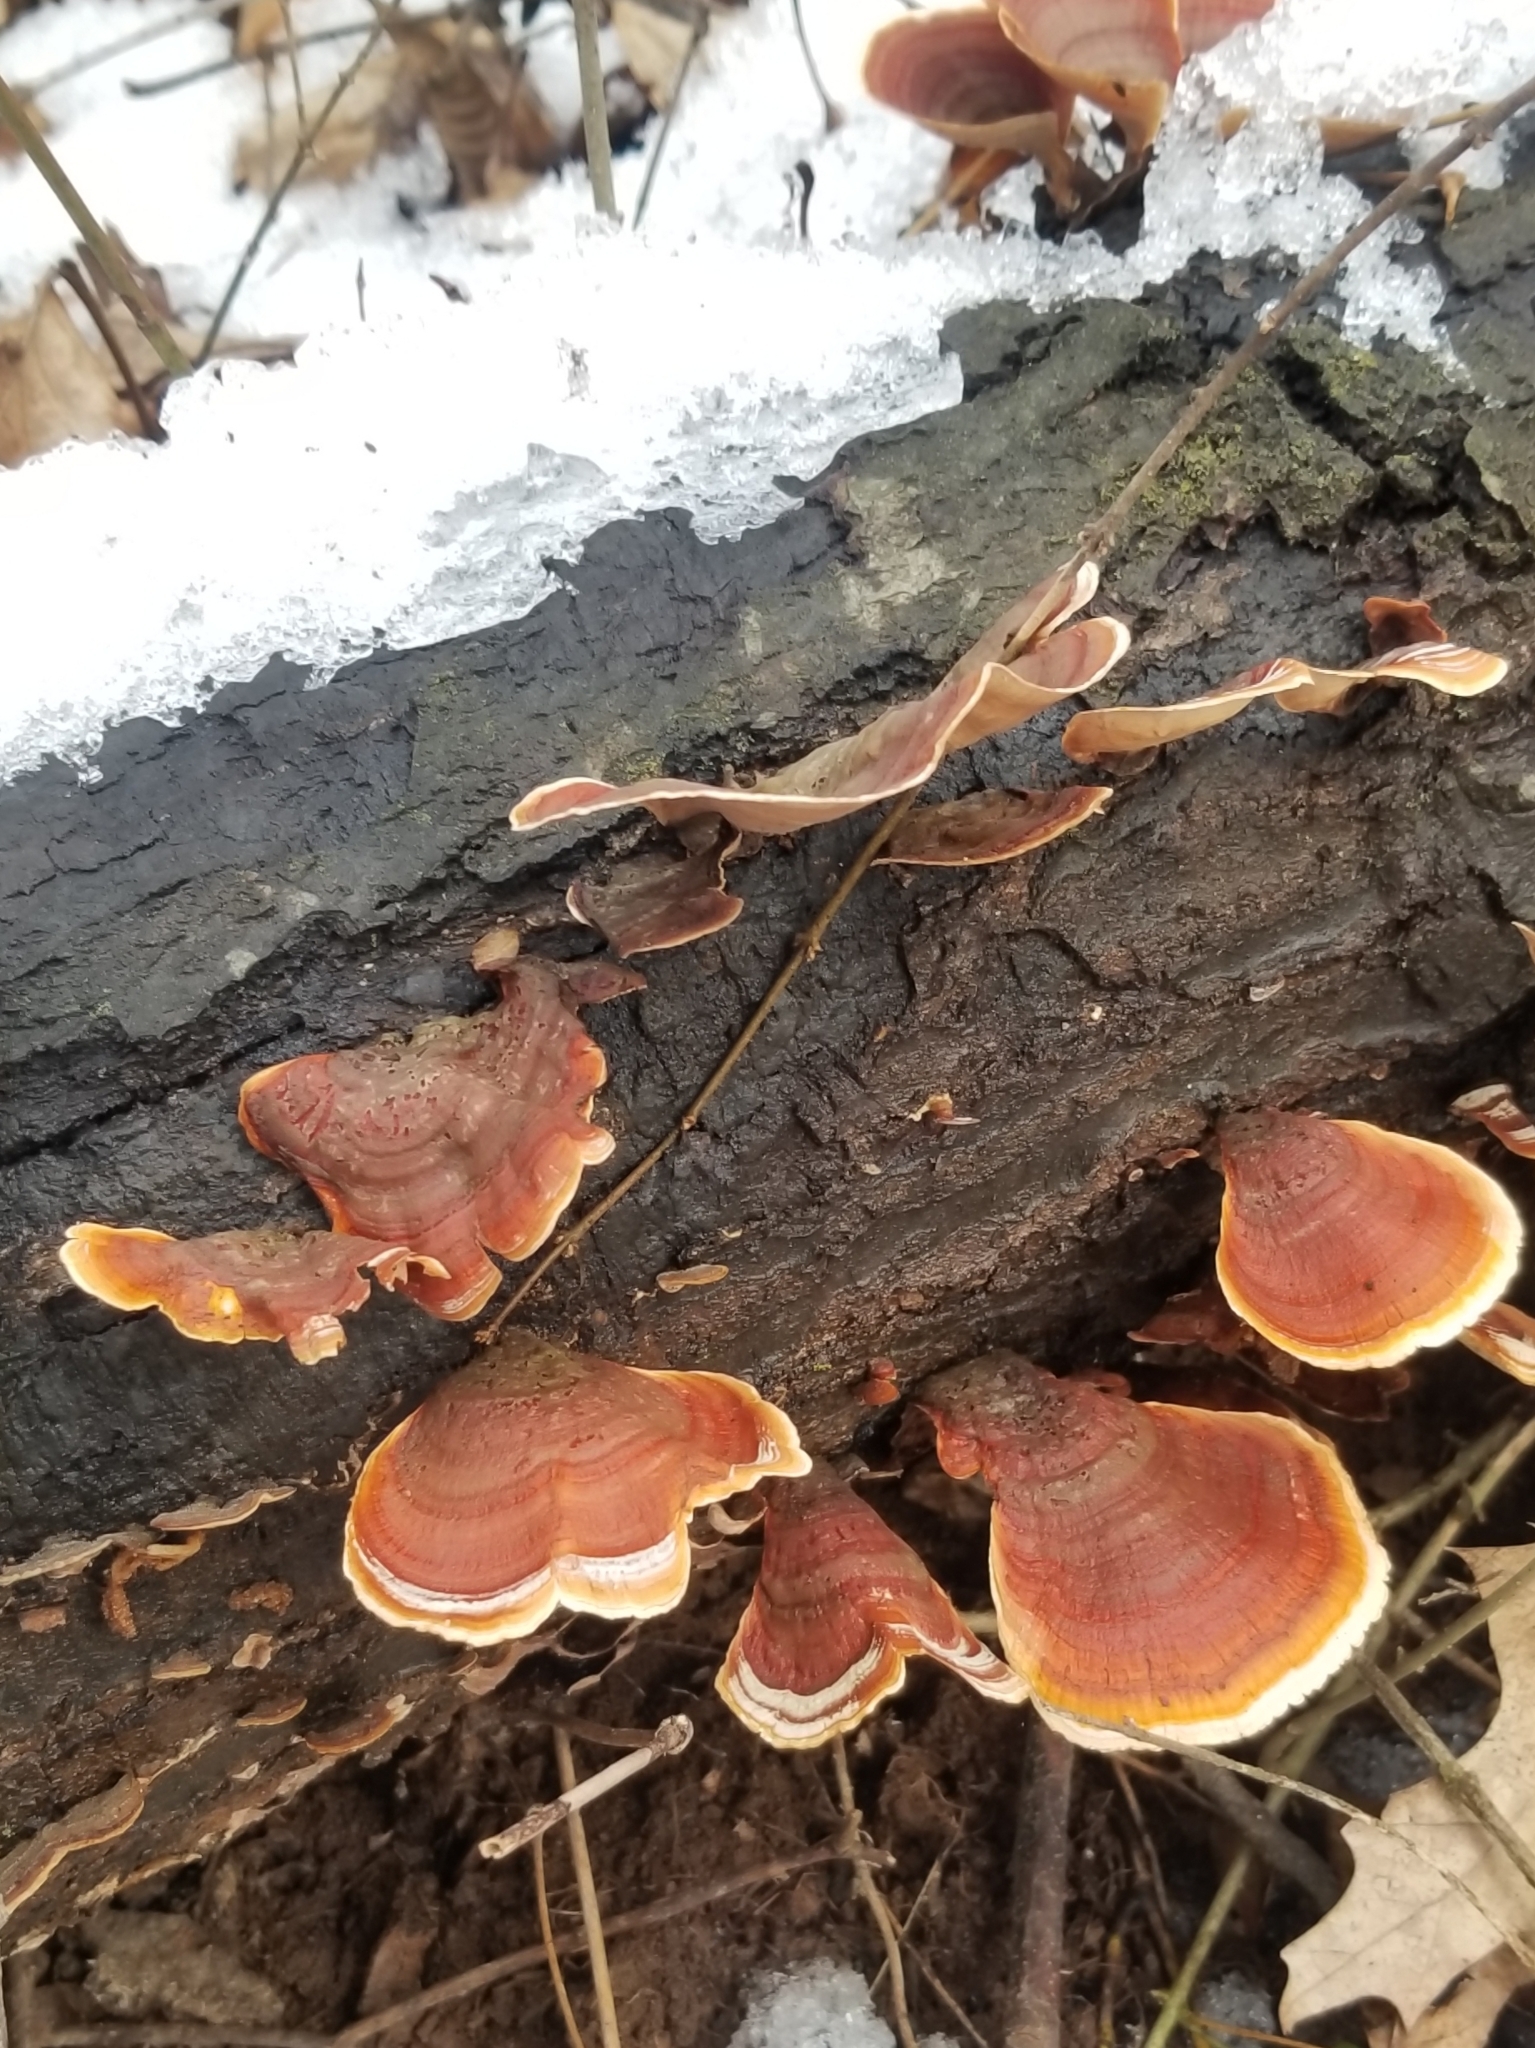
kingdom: Fungi
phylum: Basidiomycota
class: Agaricomycetes
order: Russulales
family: Stereaceae
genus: Stereum
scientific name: Stereum lobatum
